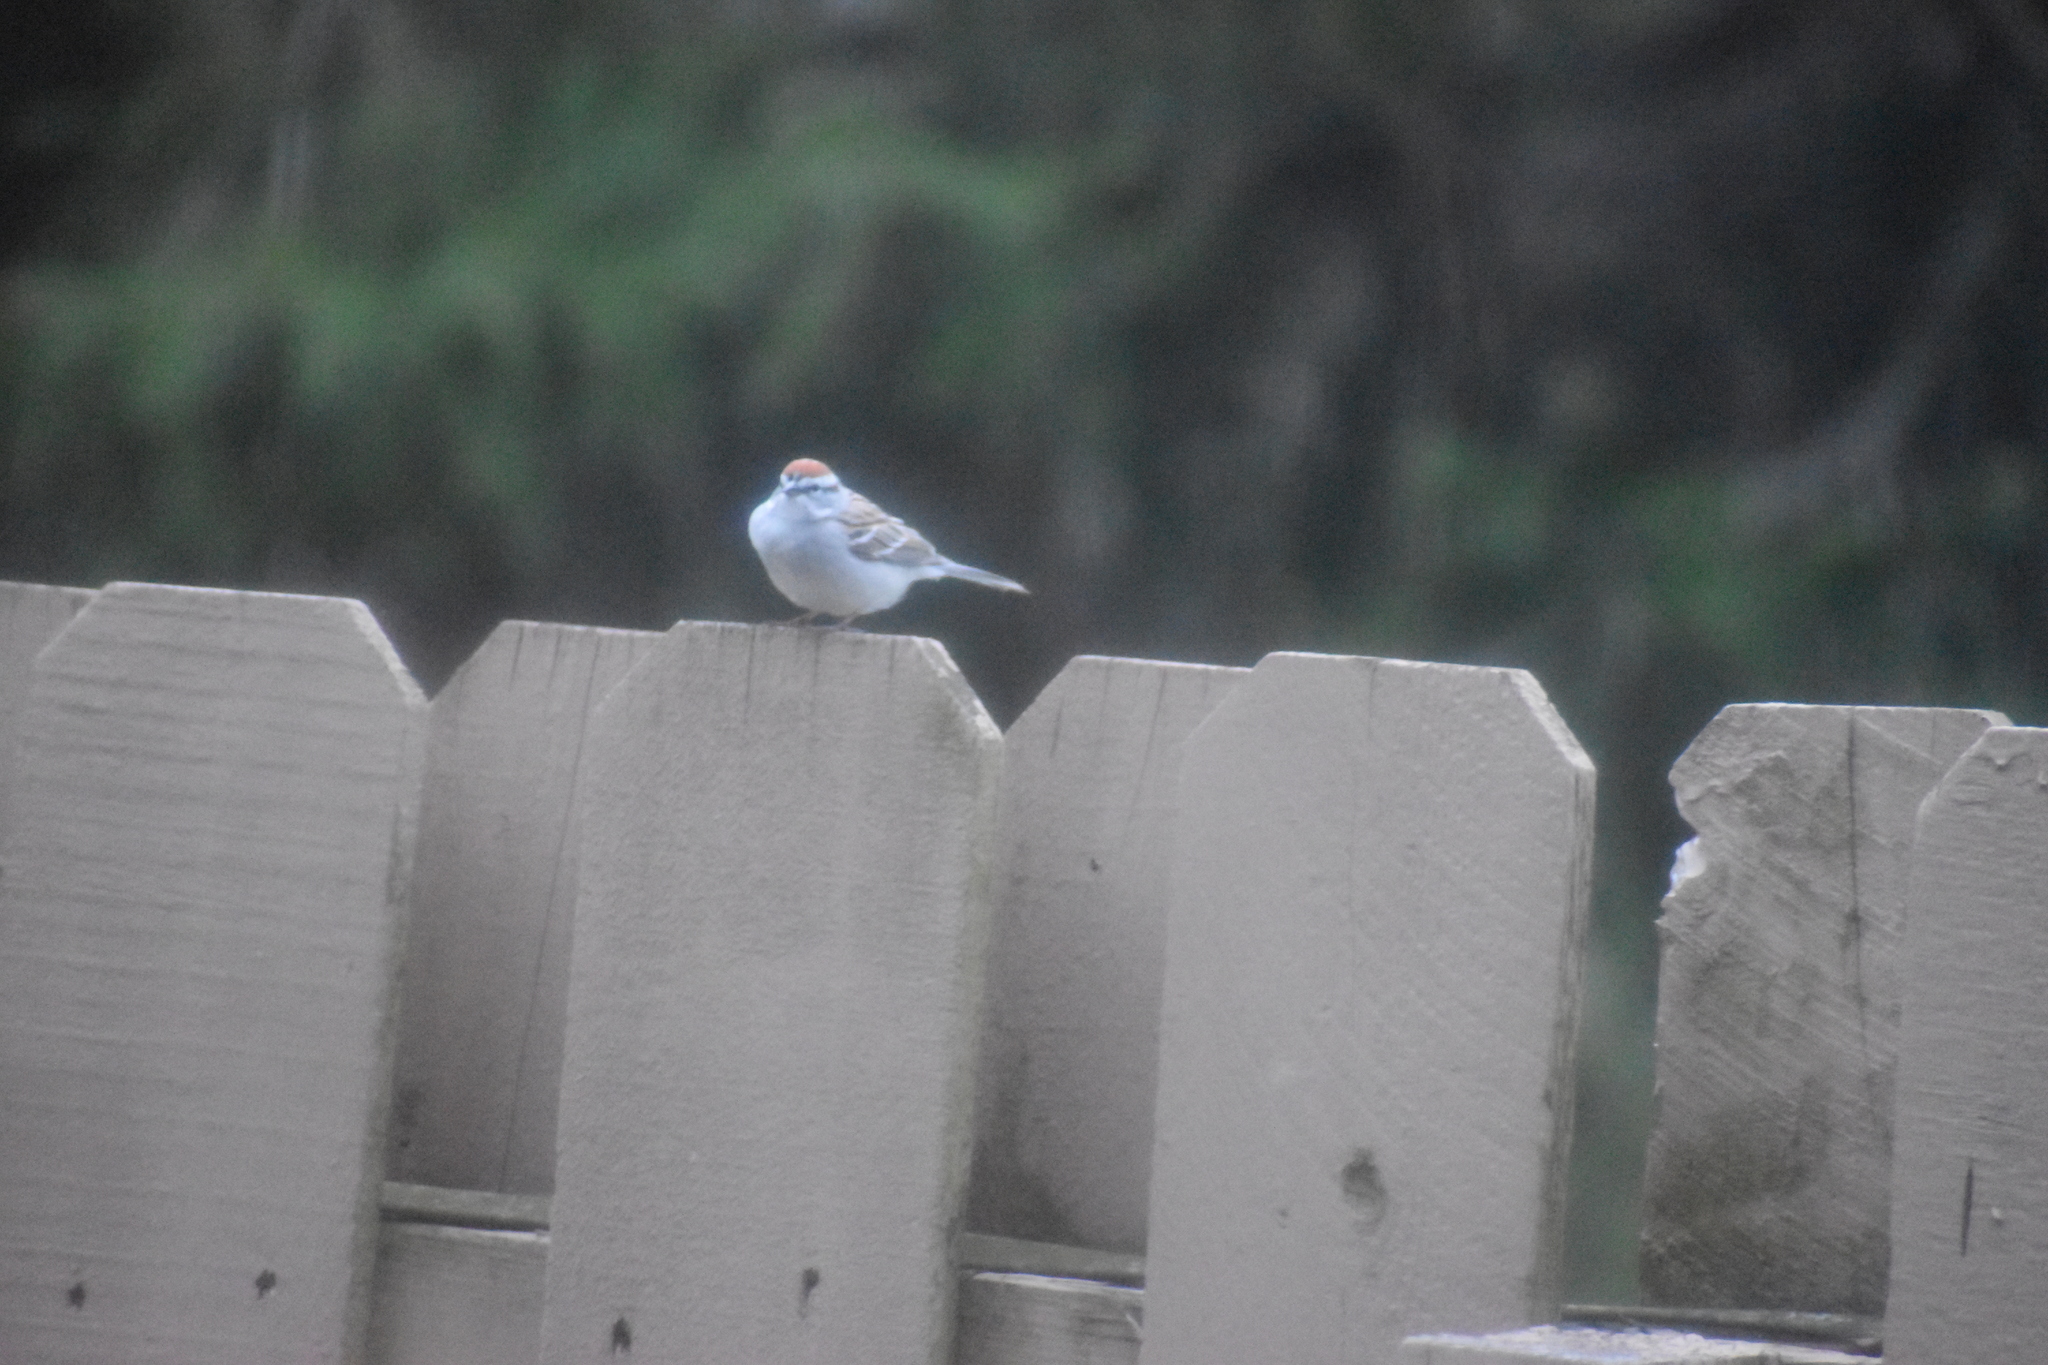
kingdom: Animalia
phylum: Chordata
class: Aves
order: Passeriformes
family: Passerellidae
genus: Spizella
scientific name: Spizella passerina
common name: Chipping sparrow
